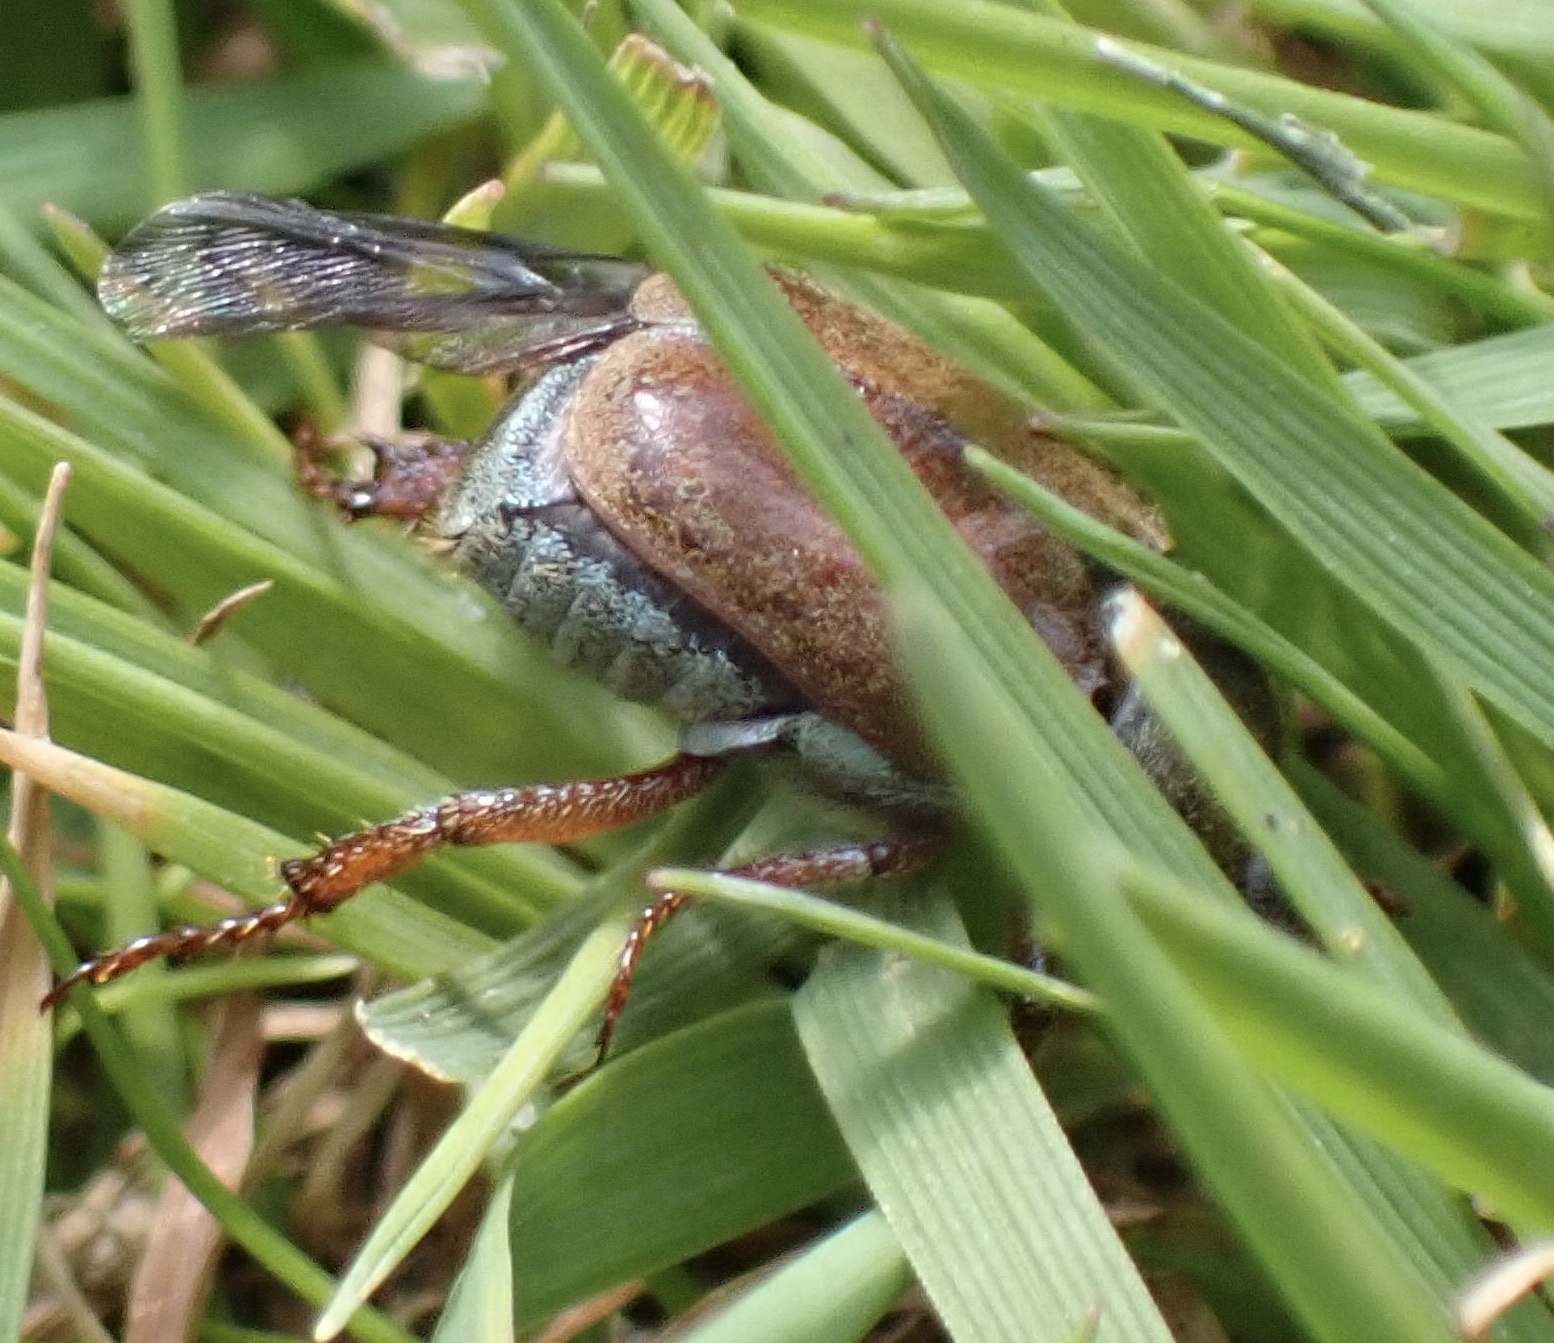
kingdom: Animalia
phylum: Arthropoda
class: Insecta
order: Coleoptera
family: Scarabaeidae
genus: Hoplia
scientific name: Hoplia philanthus
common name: Welsh chafer
